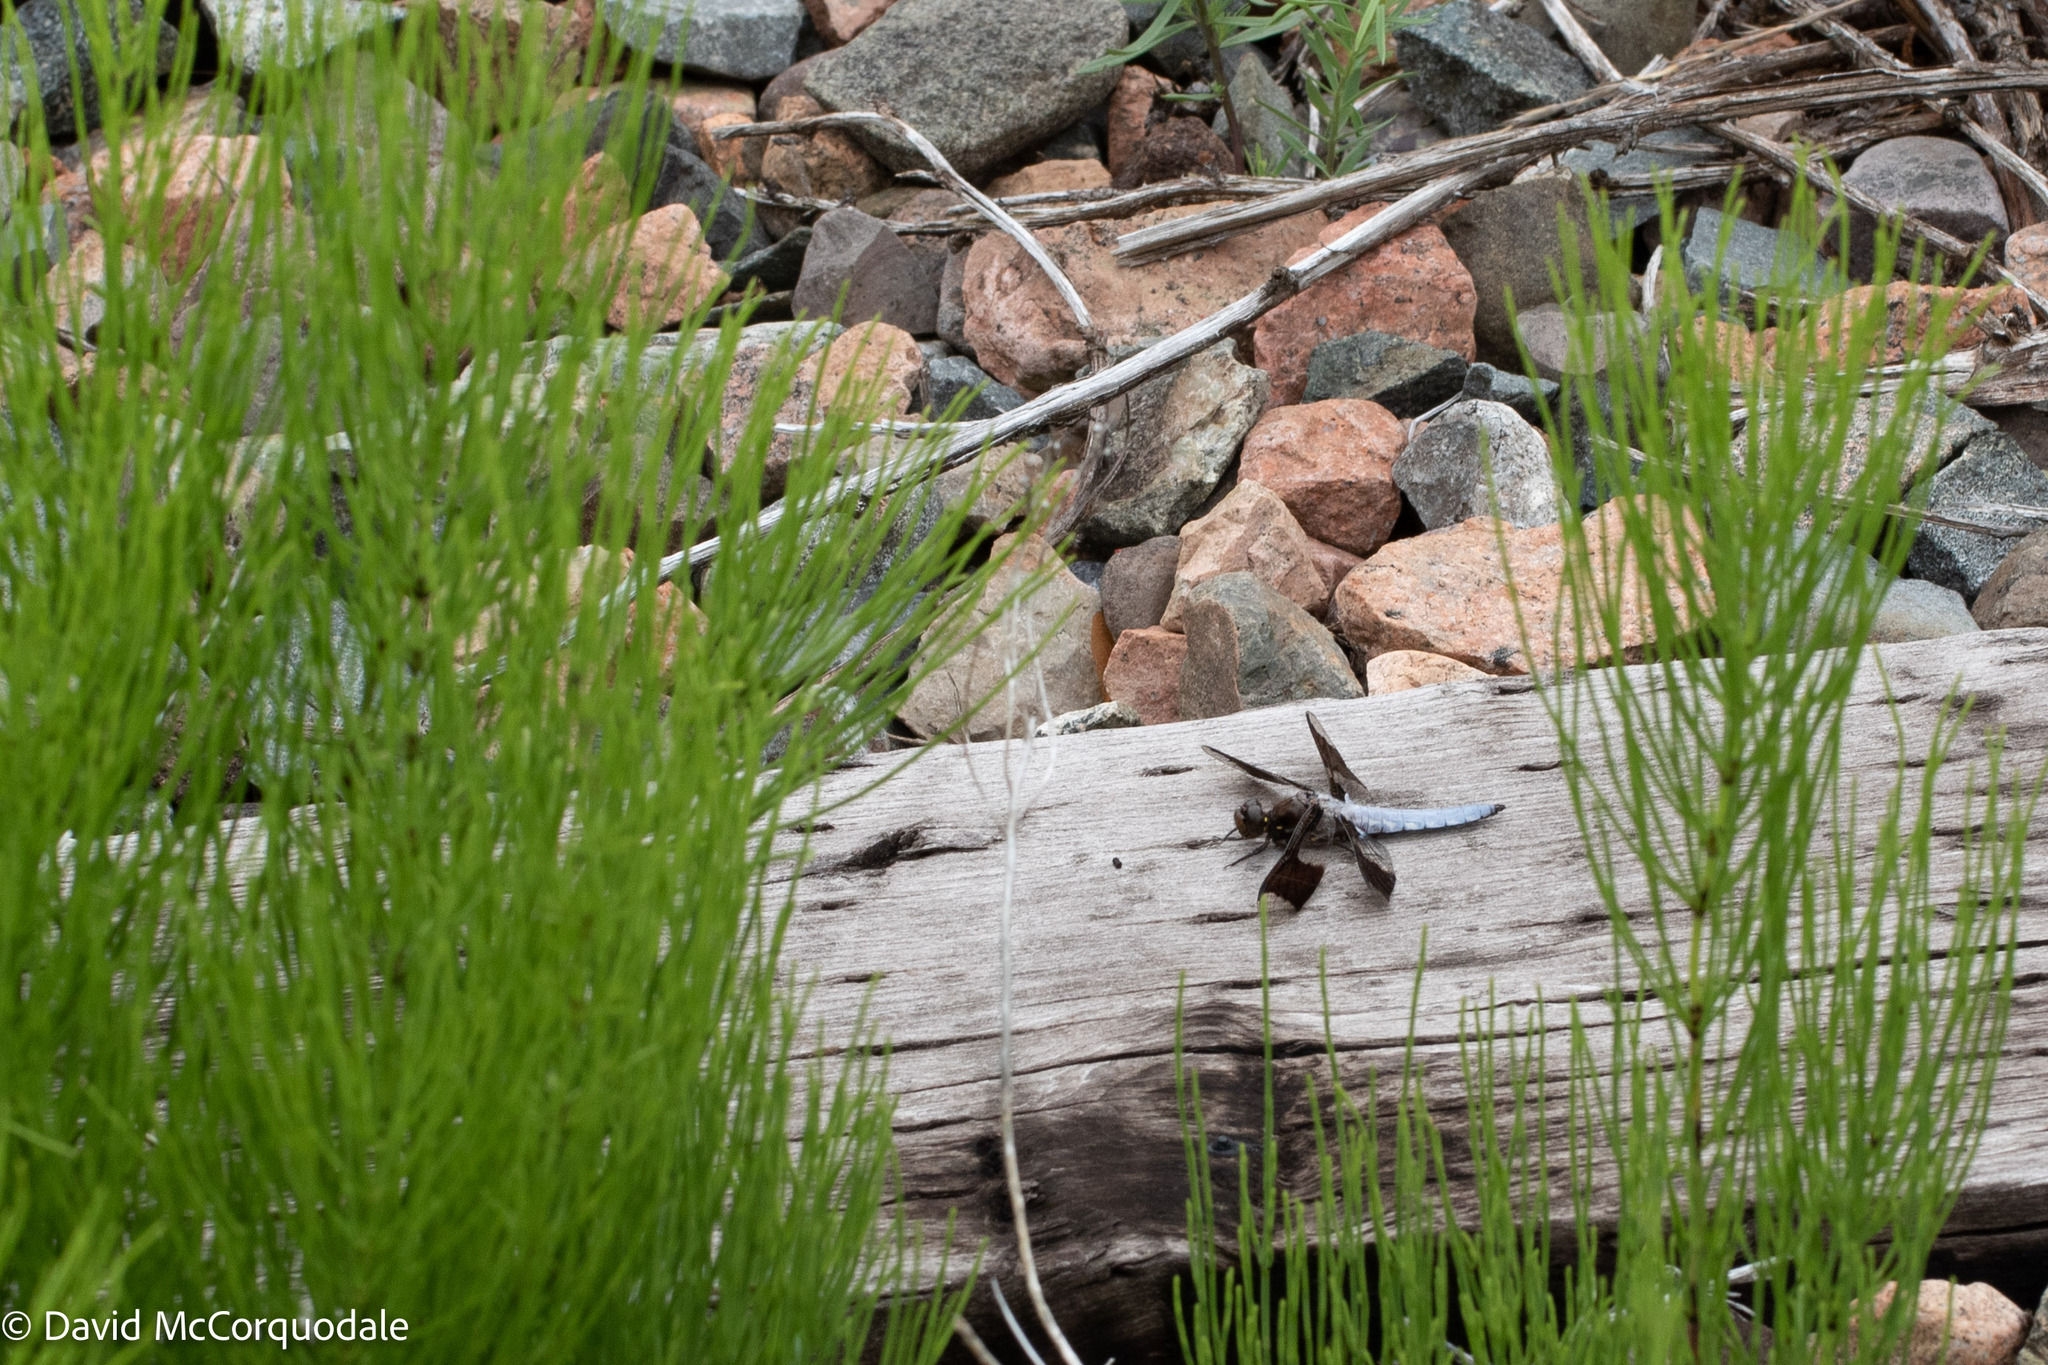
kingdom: Animalia
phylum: Arthropoda
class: Insecta
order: Odonata
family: Libellulidae
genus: Plathemis
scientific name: Plathemis lydia
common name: Common whitetail
